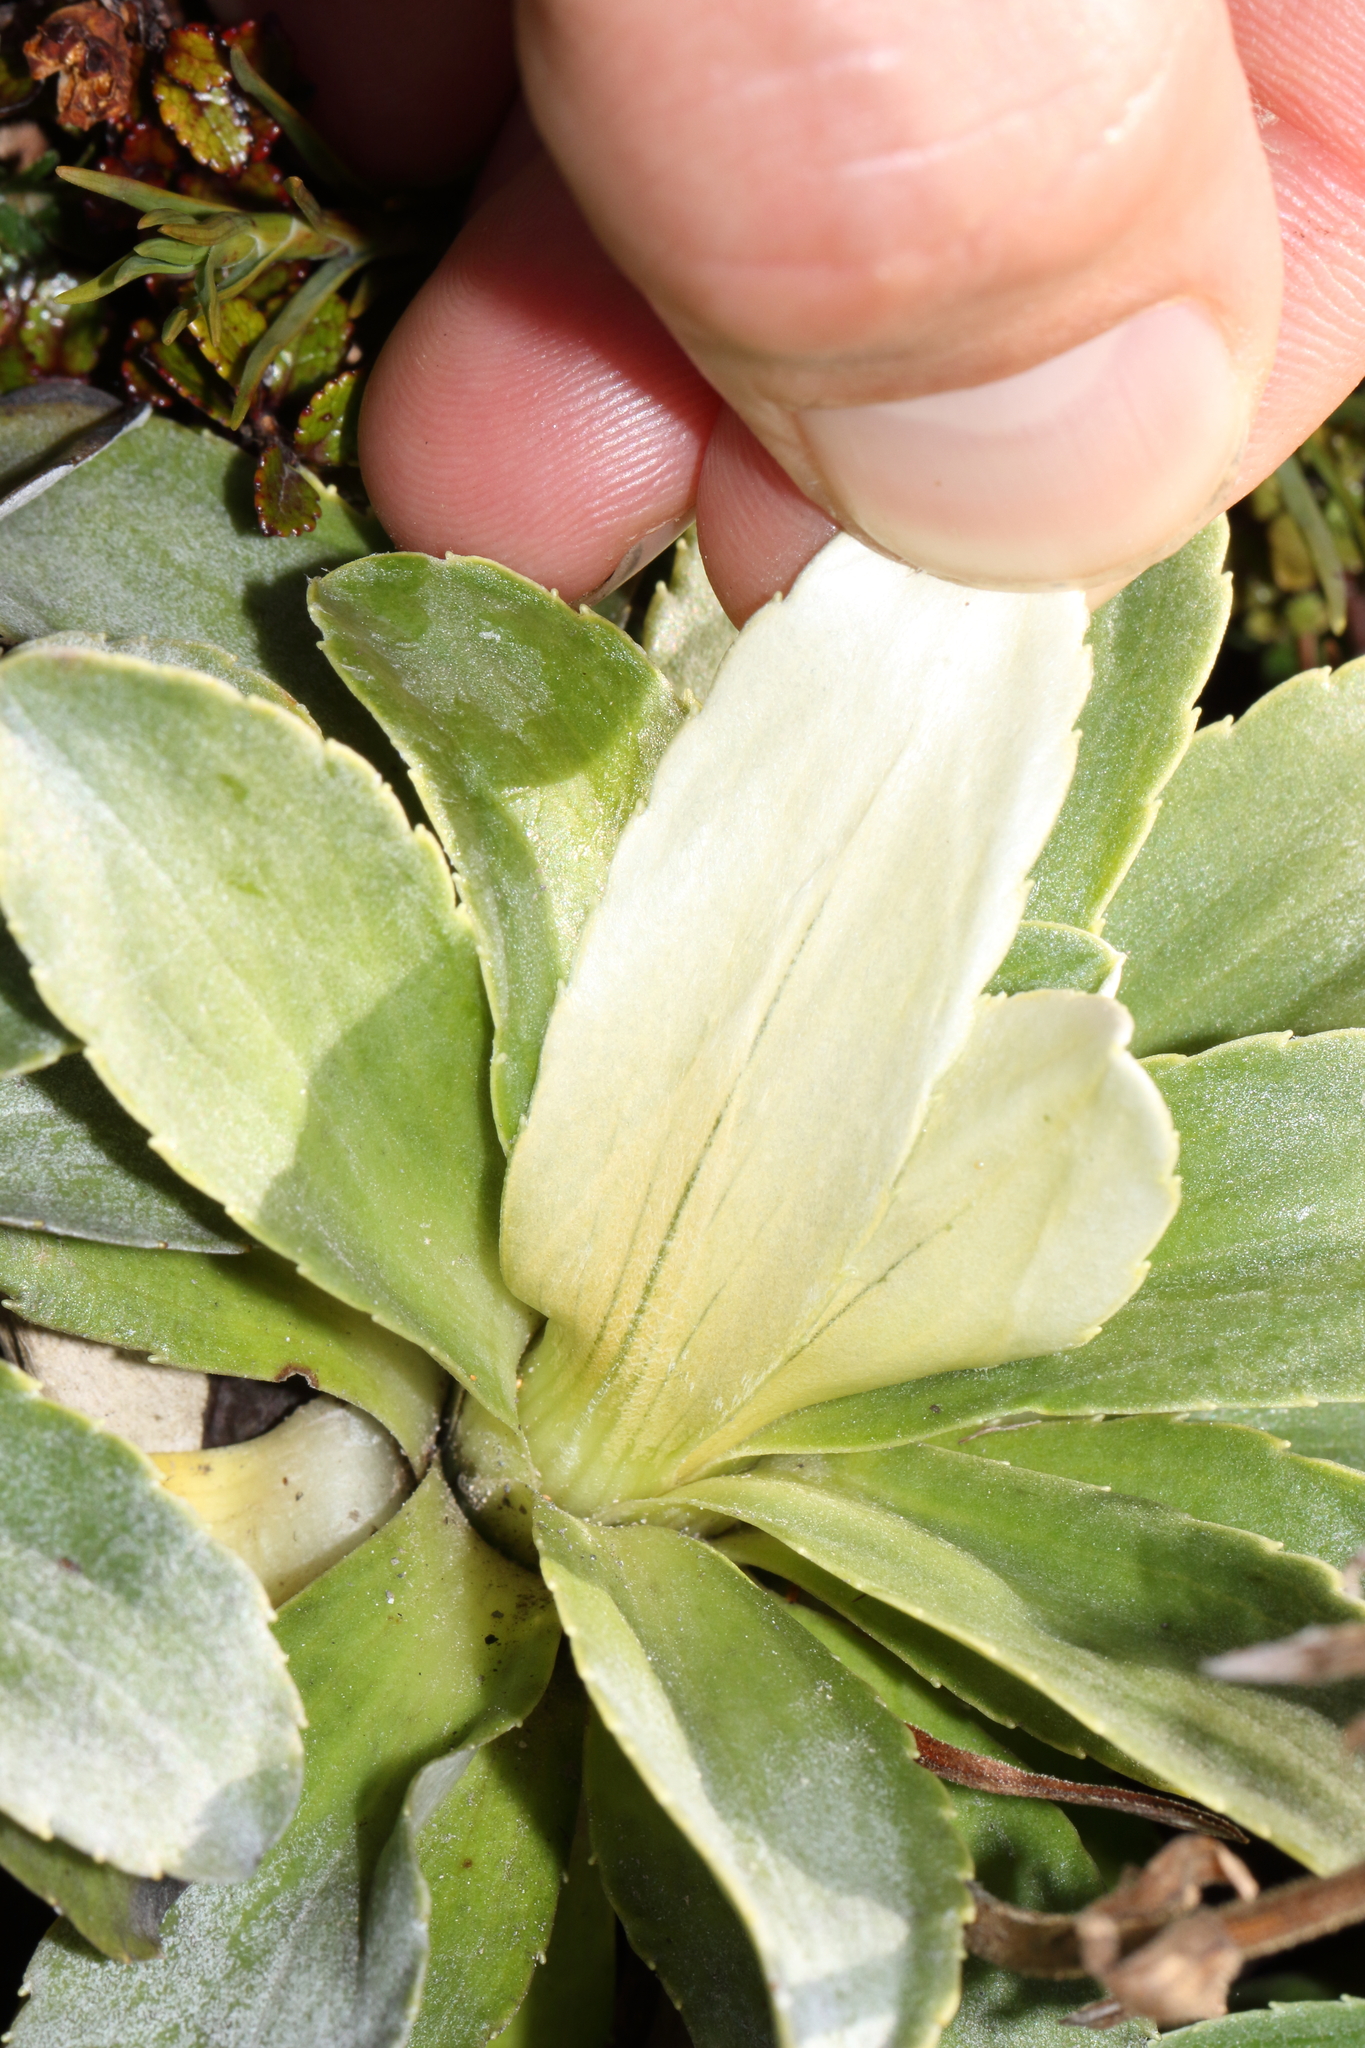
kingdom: Plantae
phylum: Tracheophyta
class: Magnoliopsida
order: Asterales
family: Asteraceae
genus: Celmisia
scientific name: Celmisia hieraciifolia
